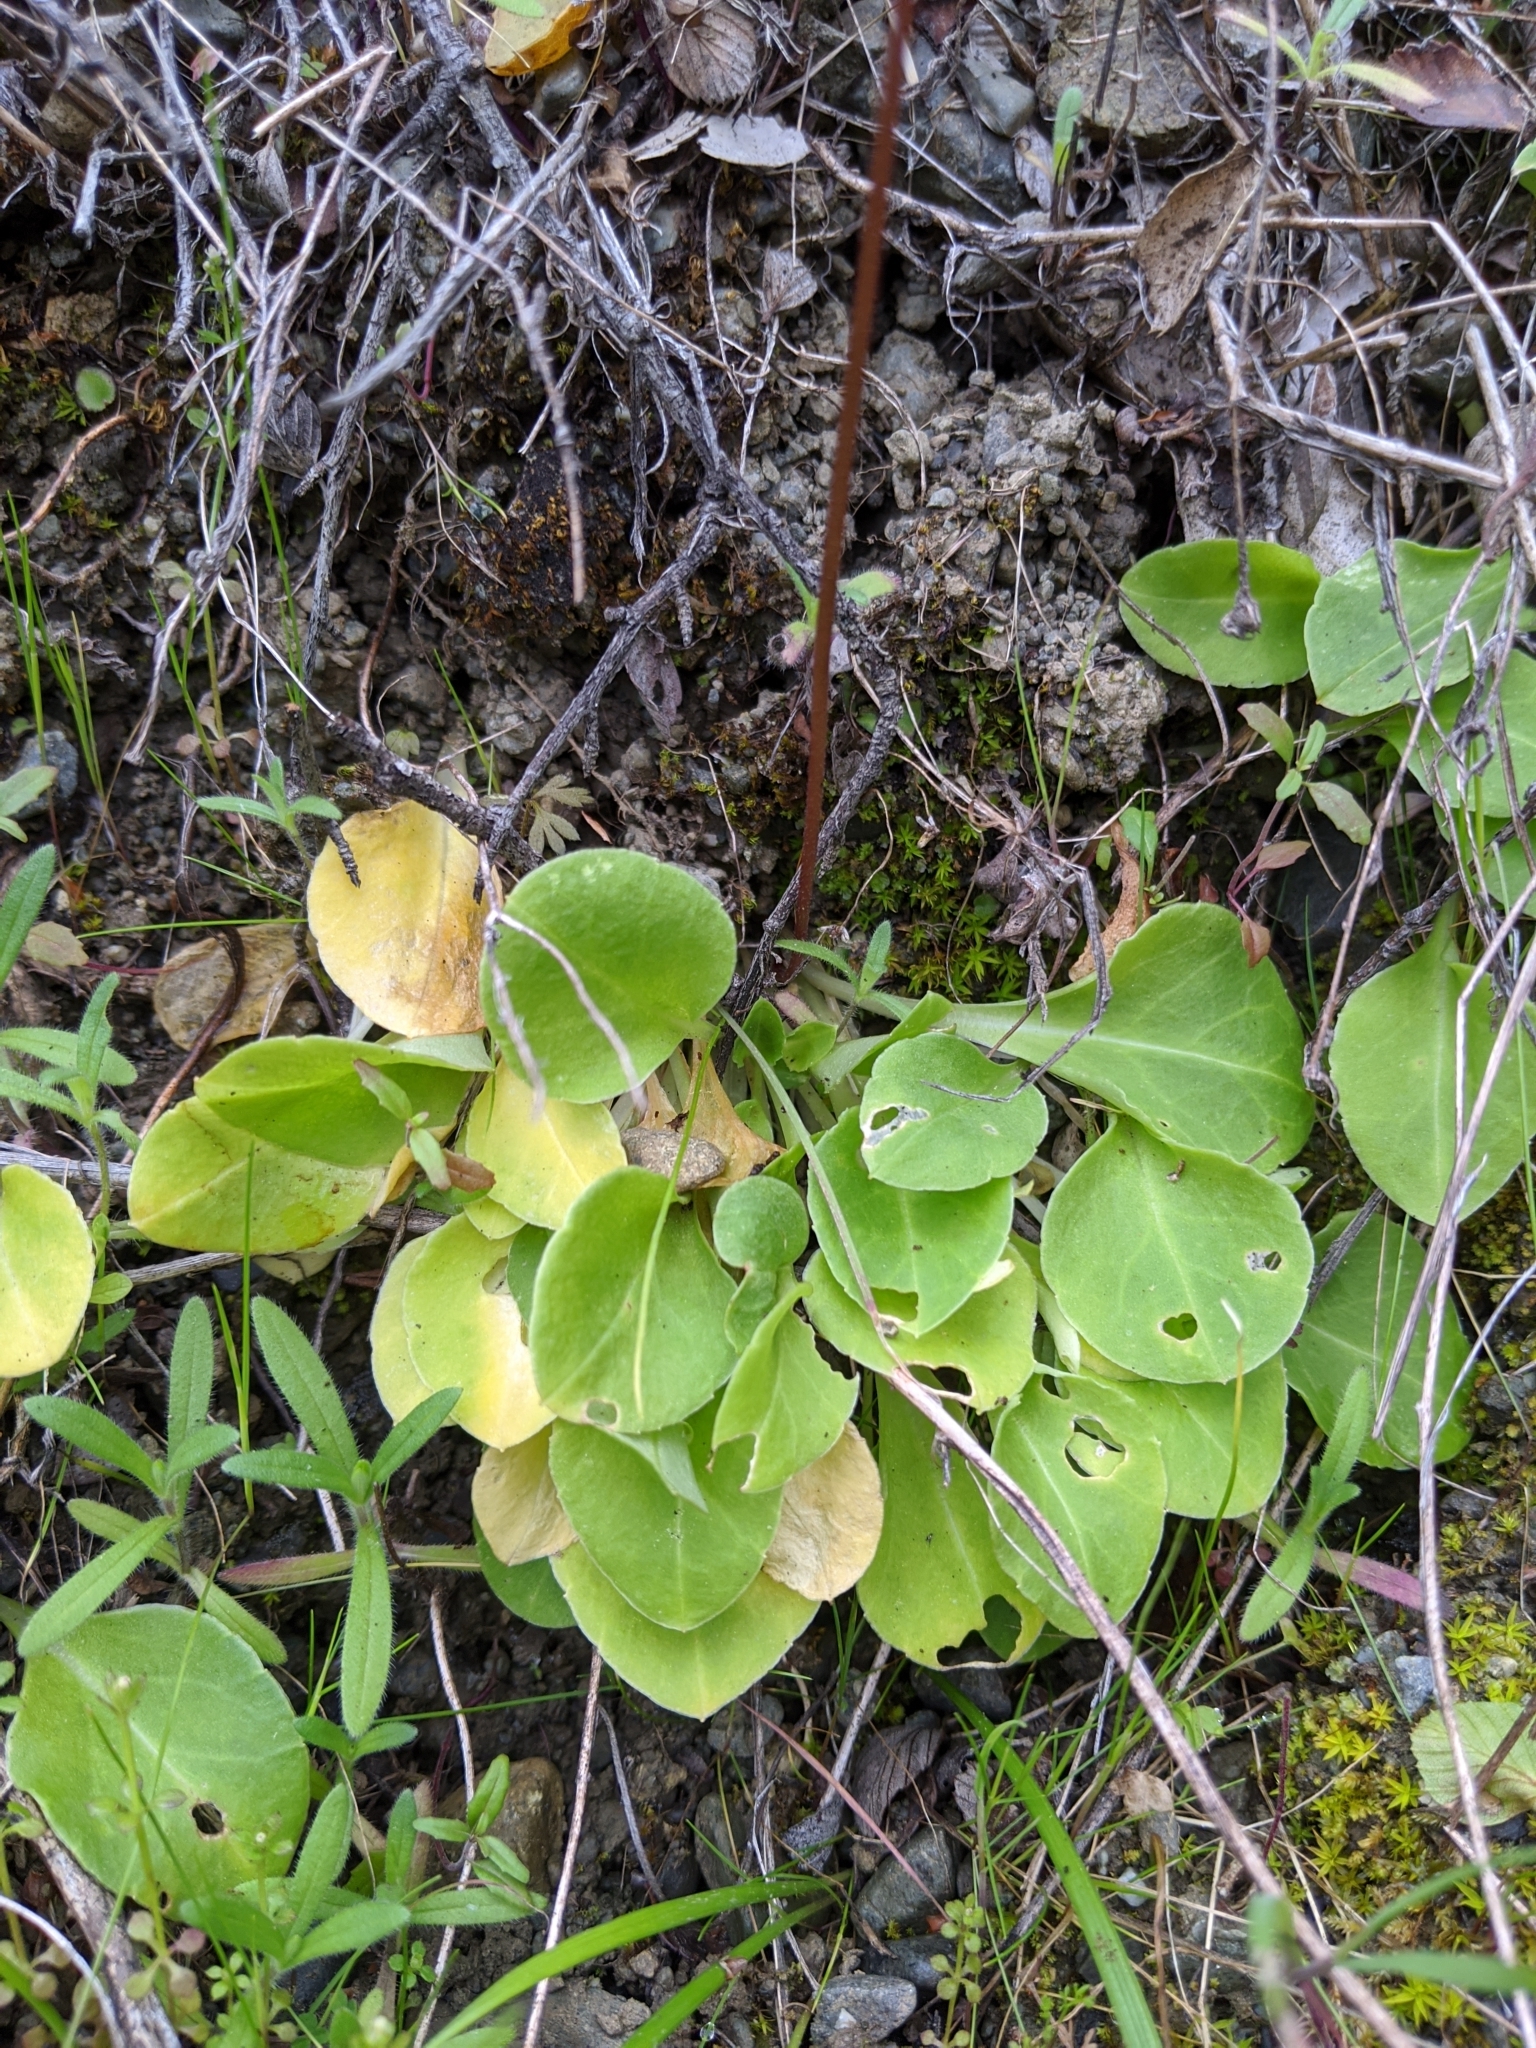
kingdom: Plantae
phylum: Tracheophyta
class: Magnoliopsida
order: Ericales
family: Primulaceae
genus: Dodecatheon
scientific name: Dodecatheon hendersonii
